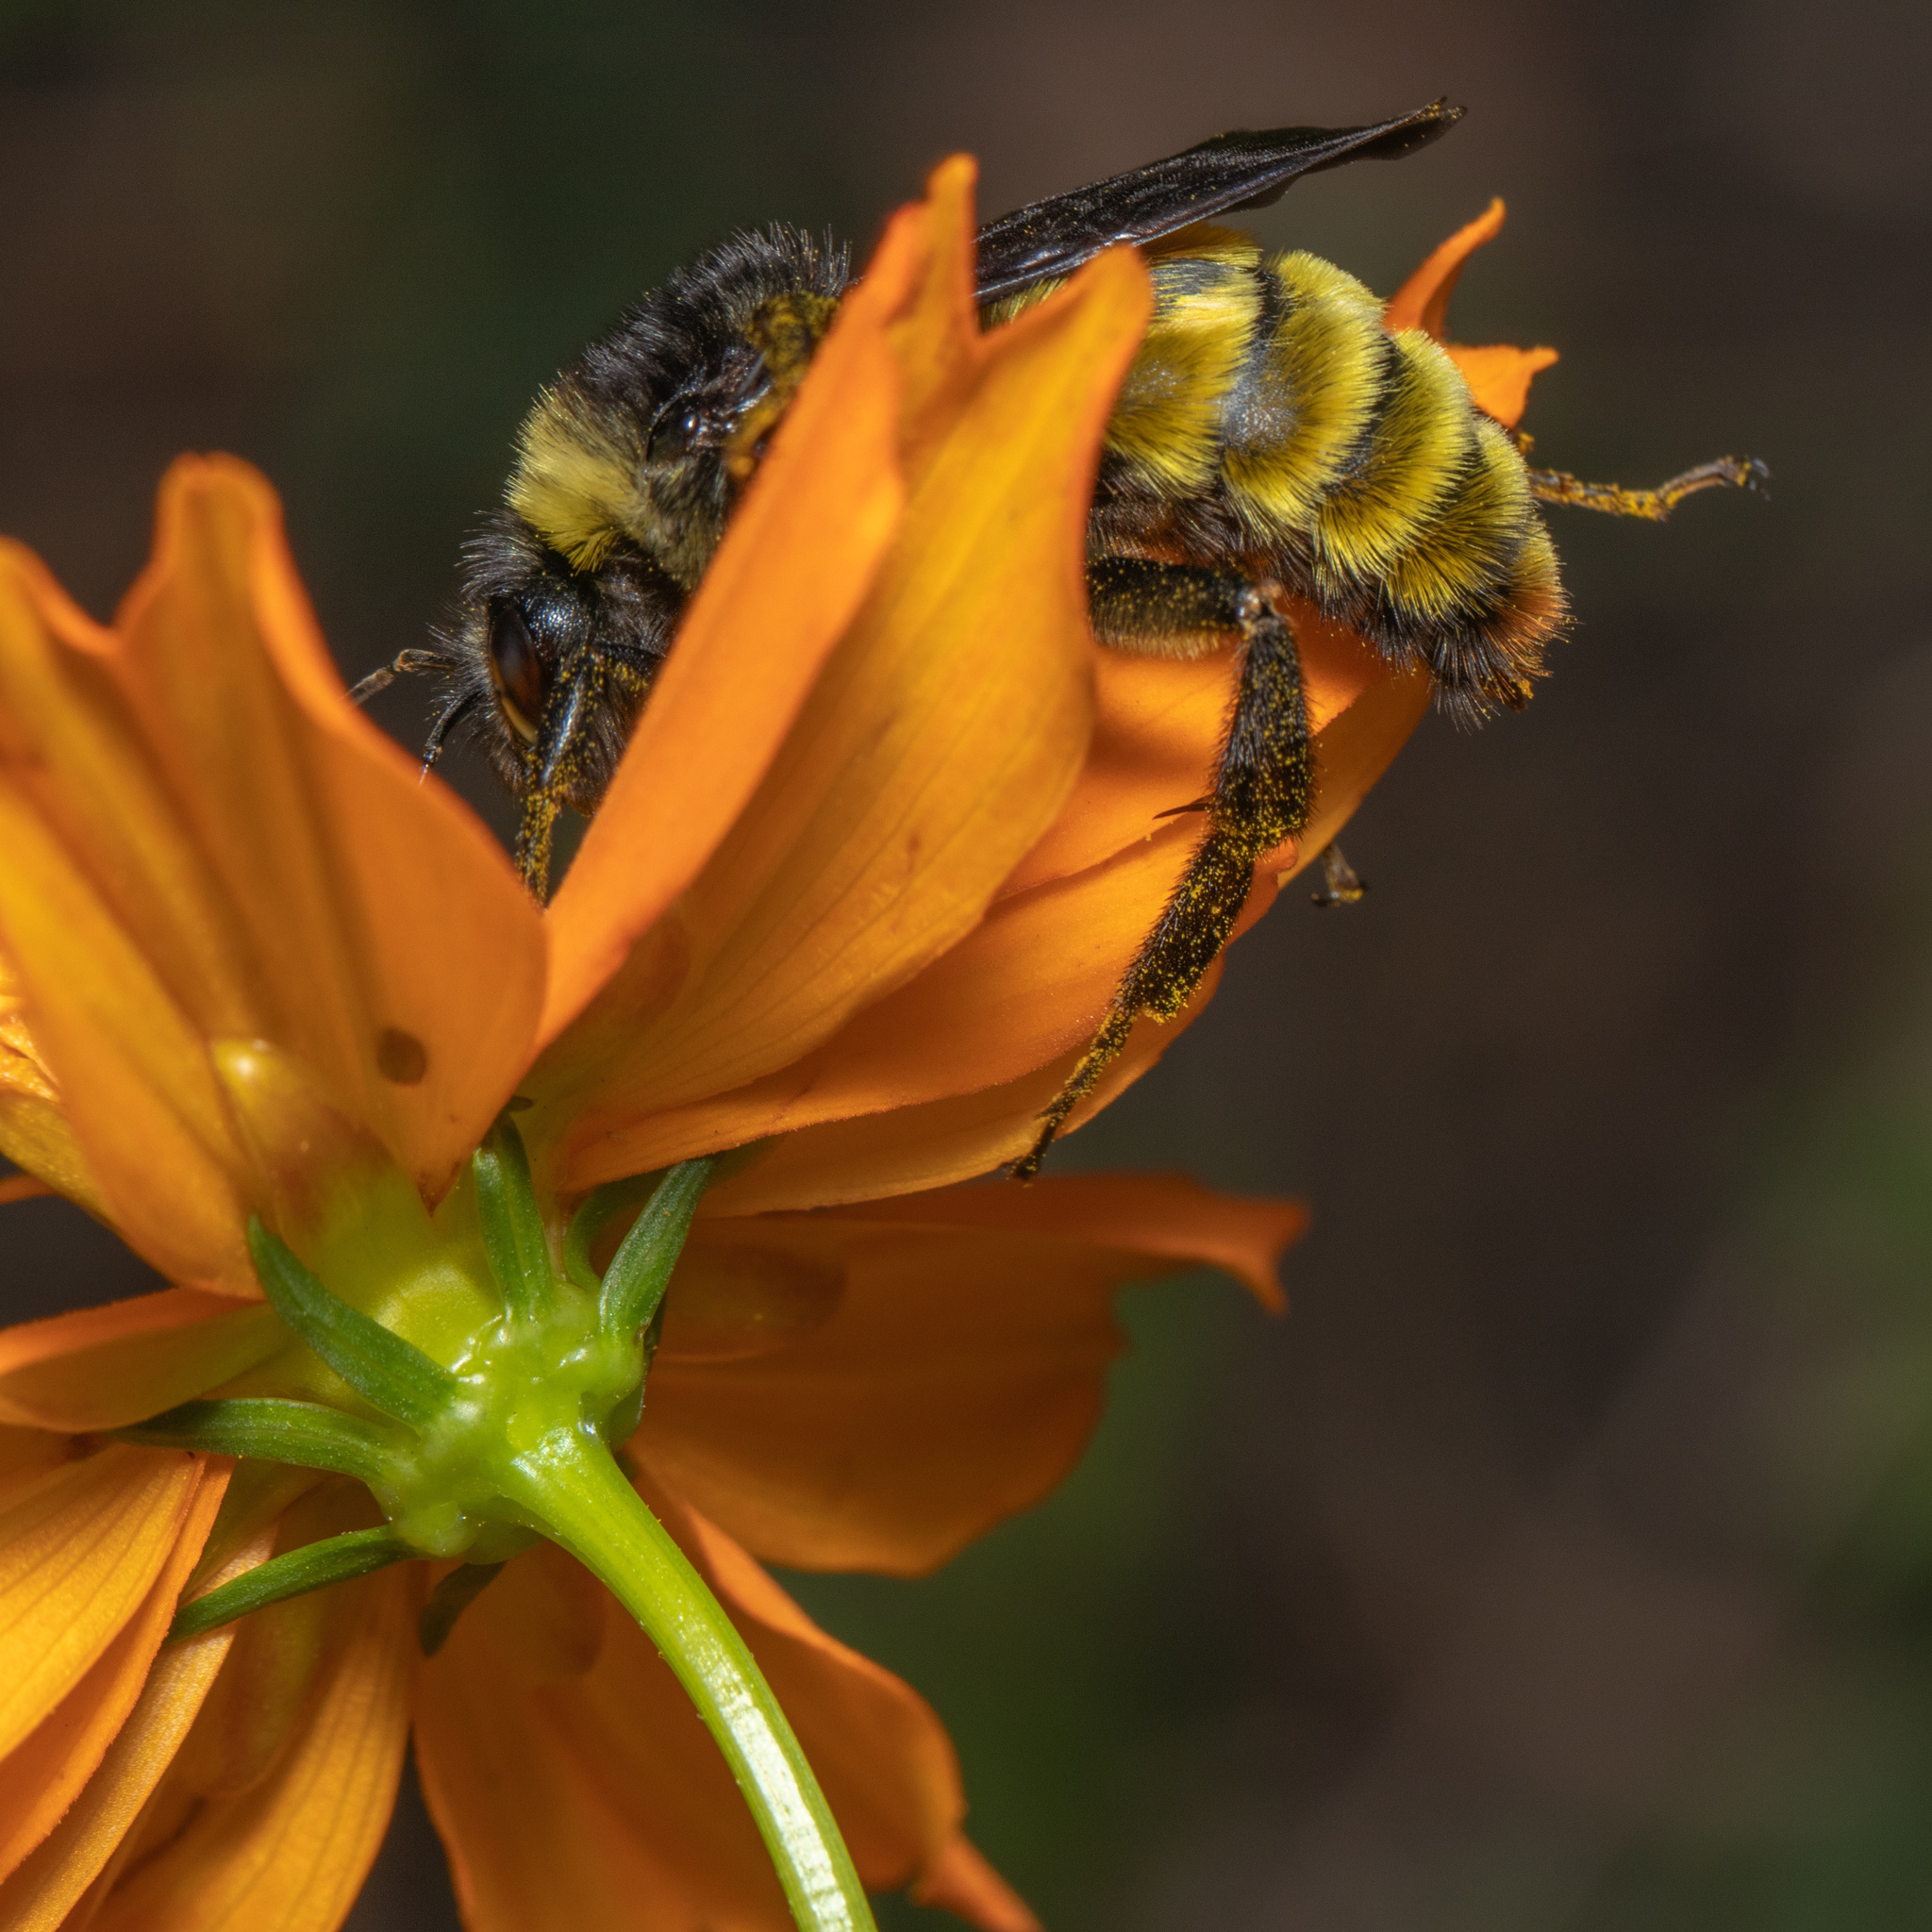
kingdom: Animalia
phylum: Arthropoda
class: Insecta
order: Hymenoptera
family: Apidae
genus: Bombus
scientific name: Bombus pensylvanicus
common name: Bumble bee
